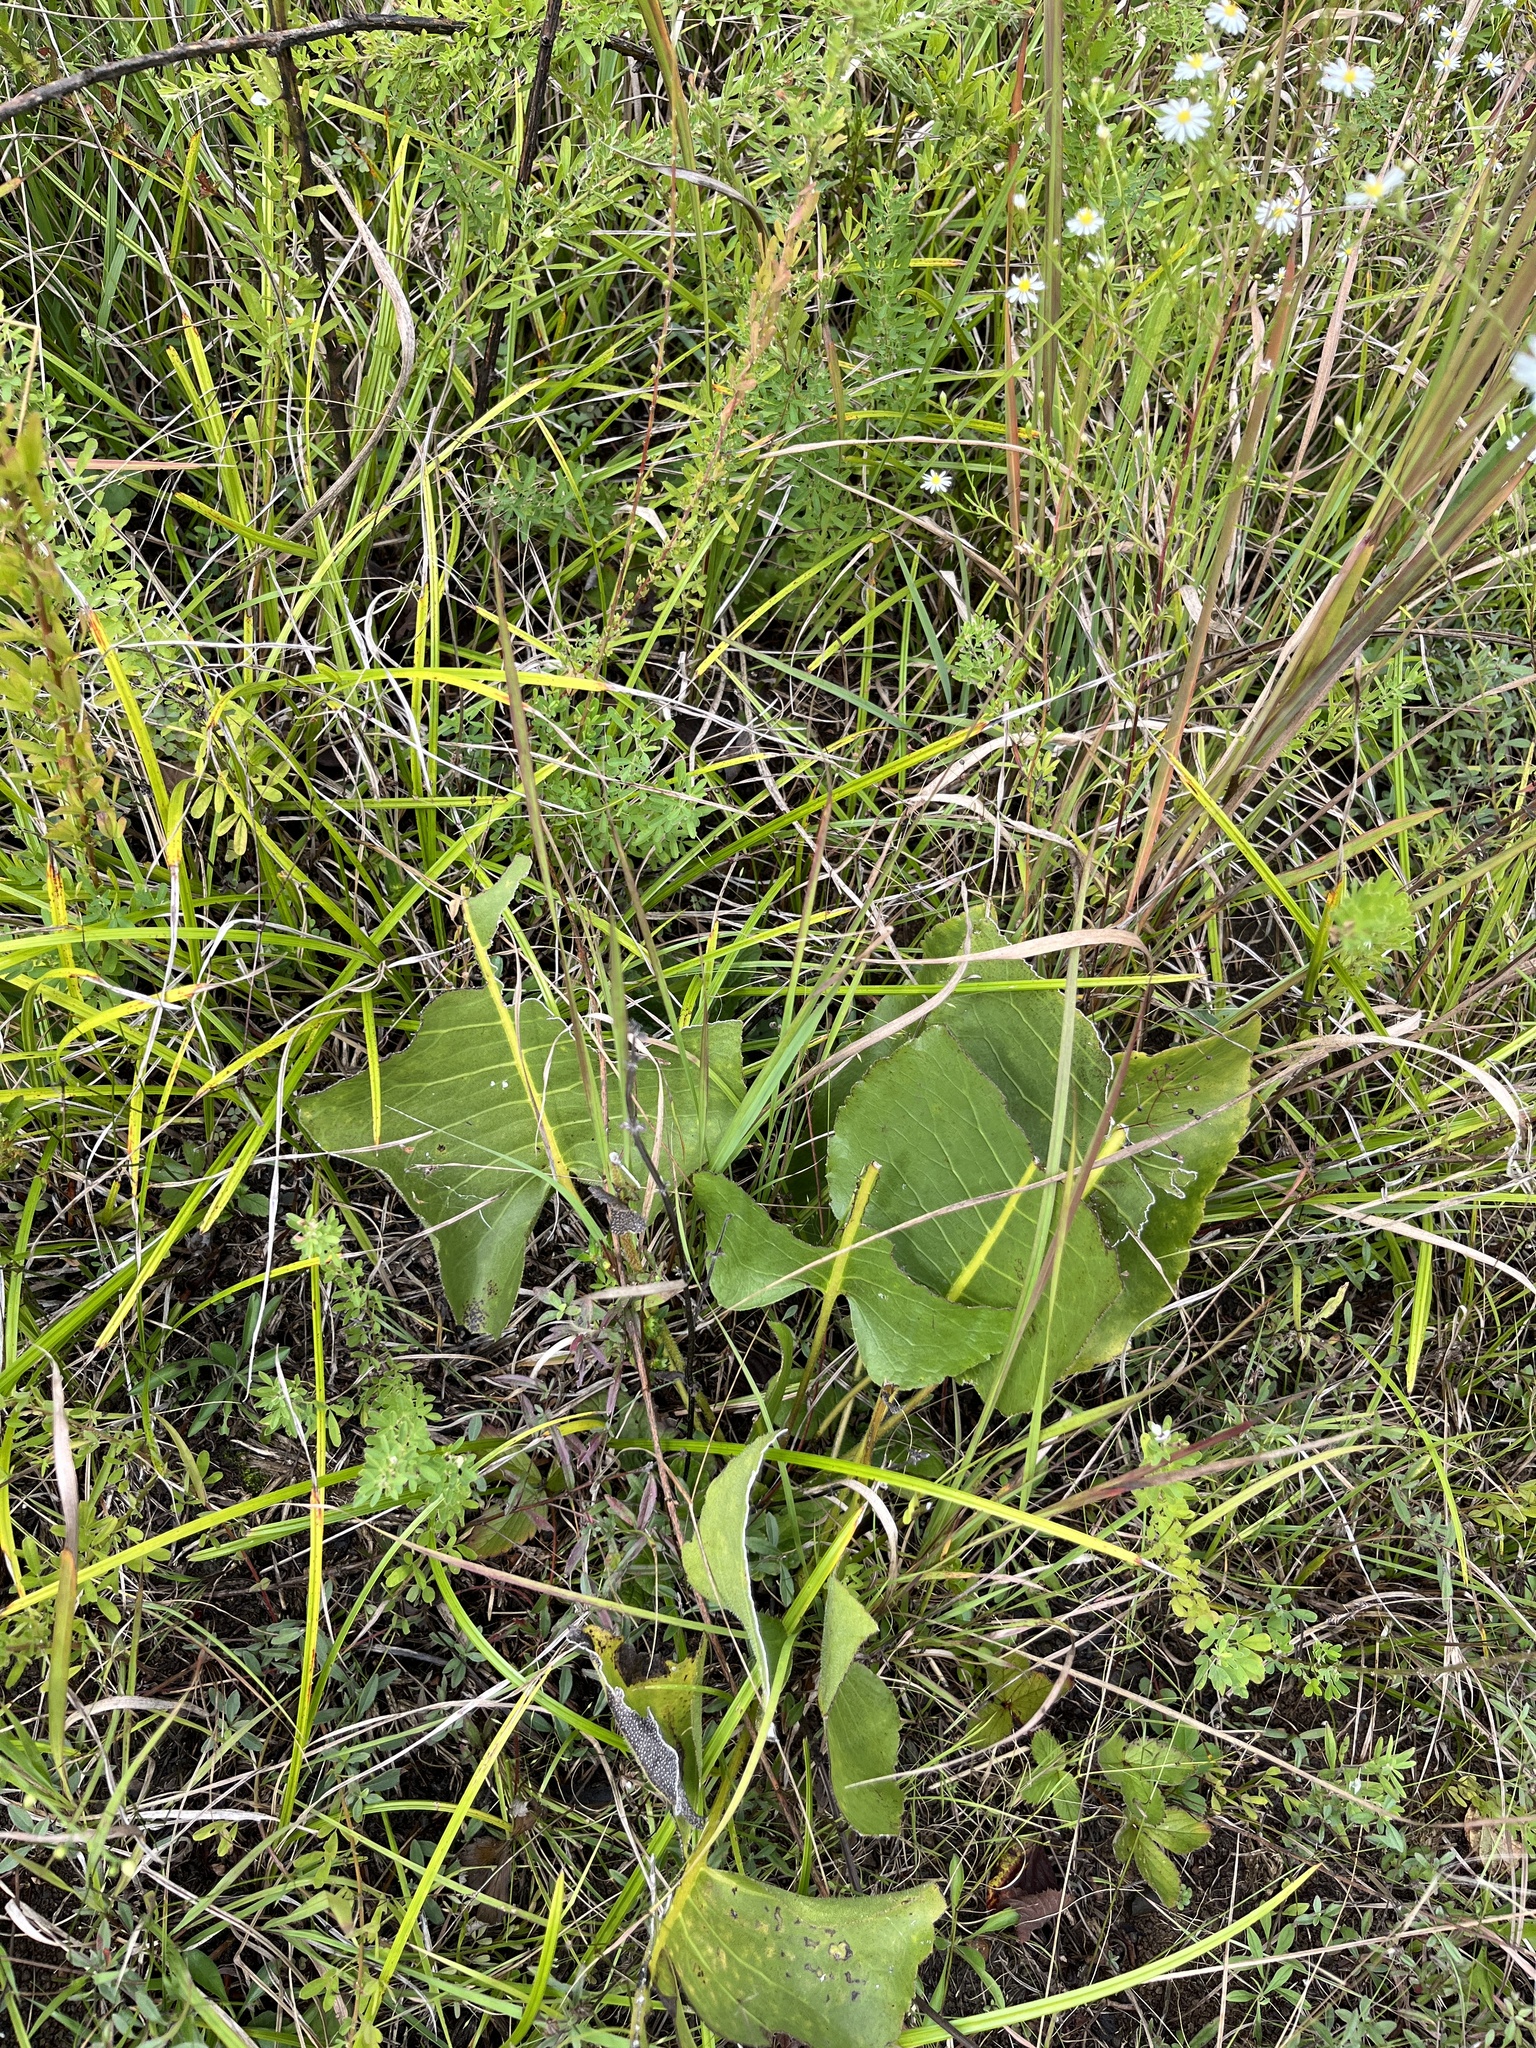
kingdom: Plantae
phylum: Tracheophyta
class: Magnoliopsida
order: Asterales
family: Asteraceae
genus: Silphium
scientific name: Silphium terebinthinaceum
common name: Basal-leaf rosinweed
